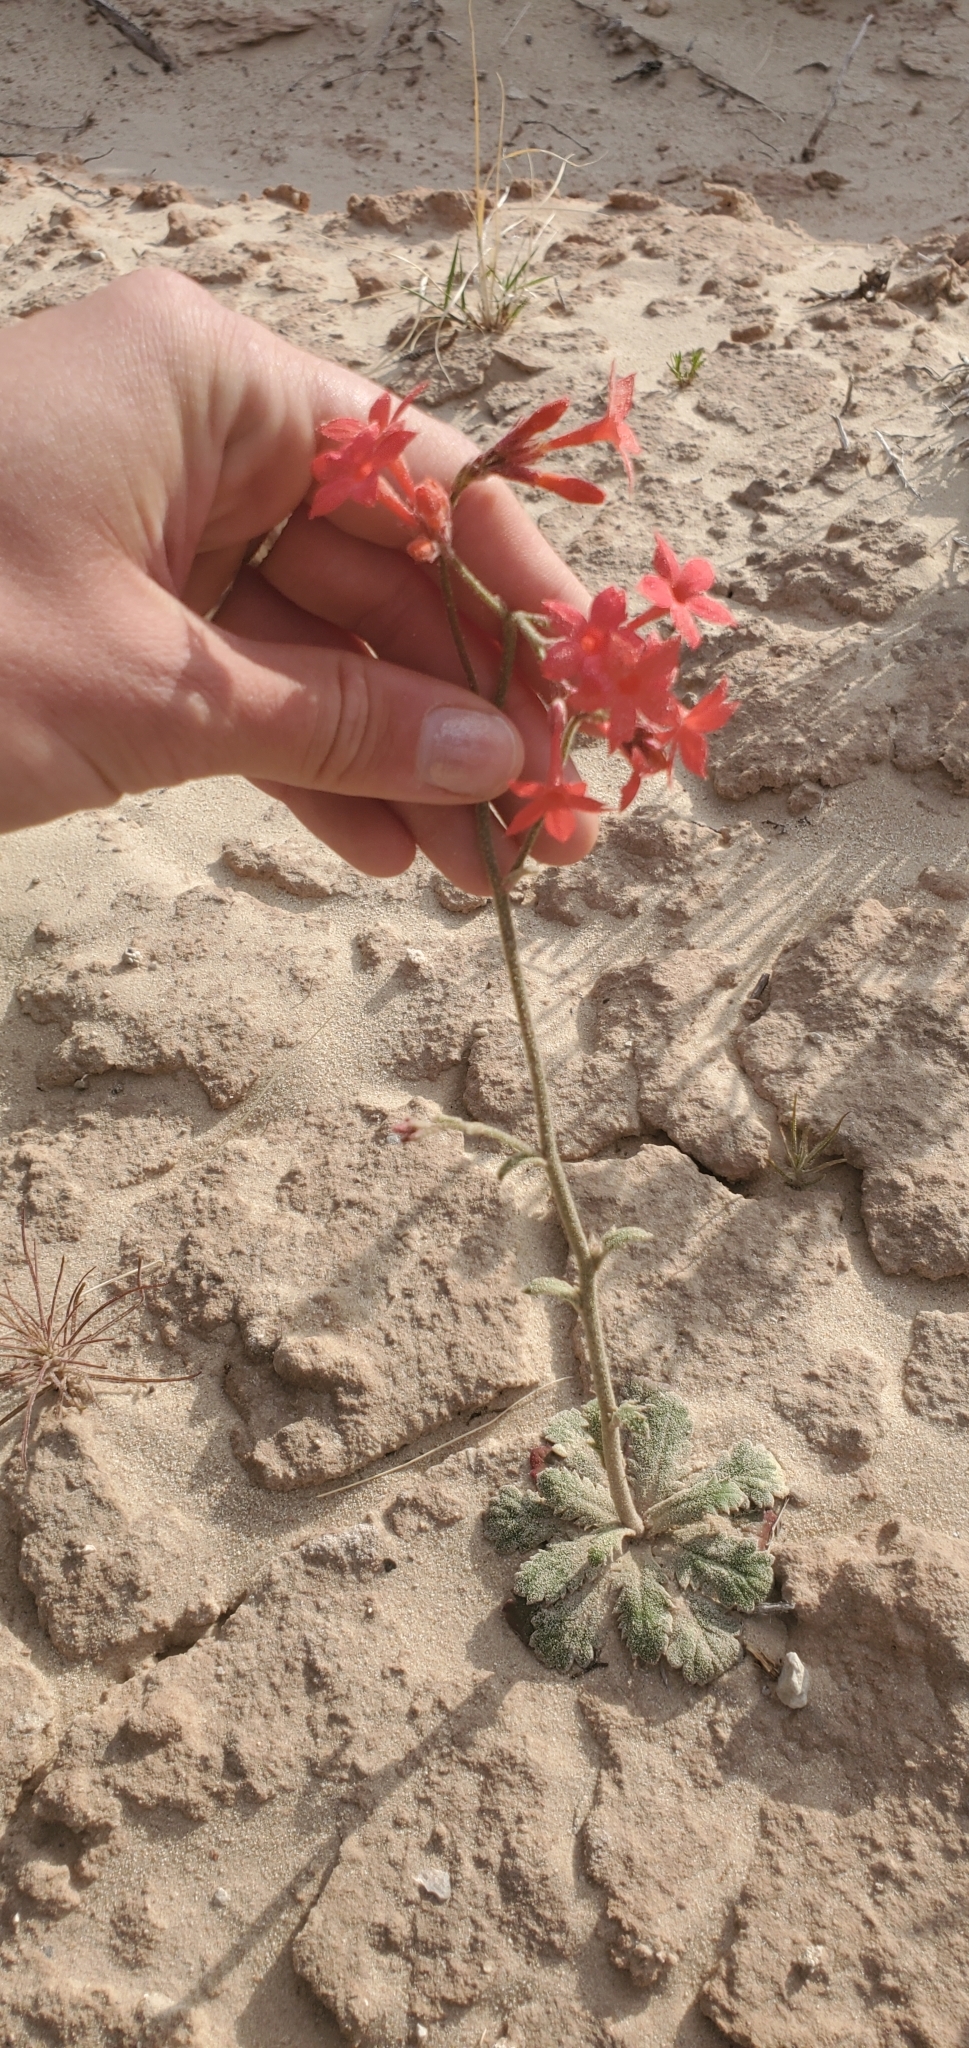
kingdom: Plantae
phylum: Tracheophyta
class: Magnoliopsida
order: Ericales
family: Polemoniaceae
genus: Aliciella
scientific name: Aliciella subnuda
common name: Coral gilia
